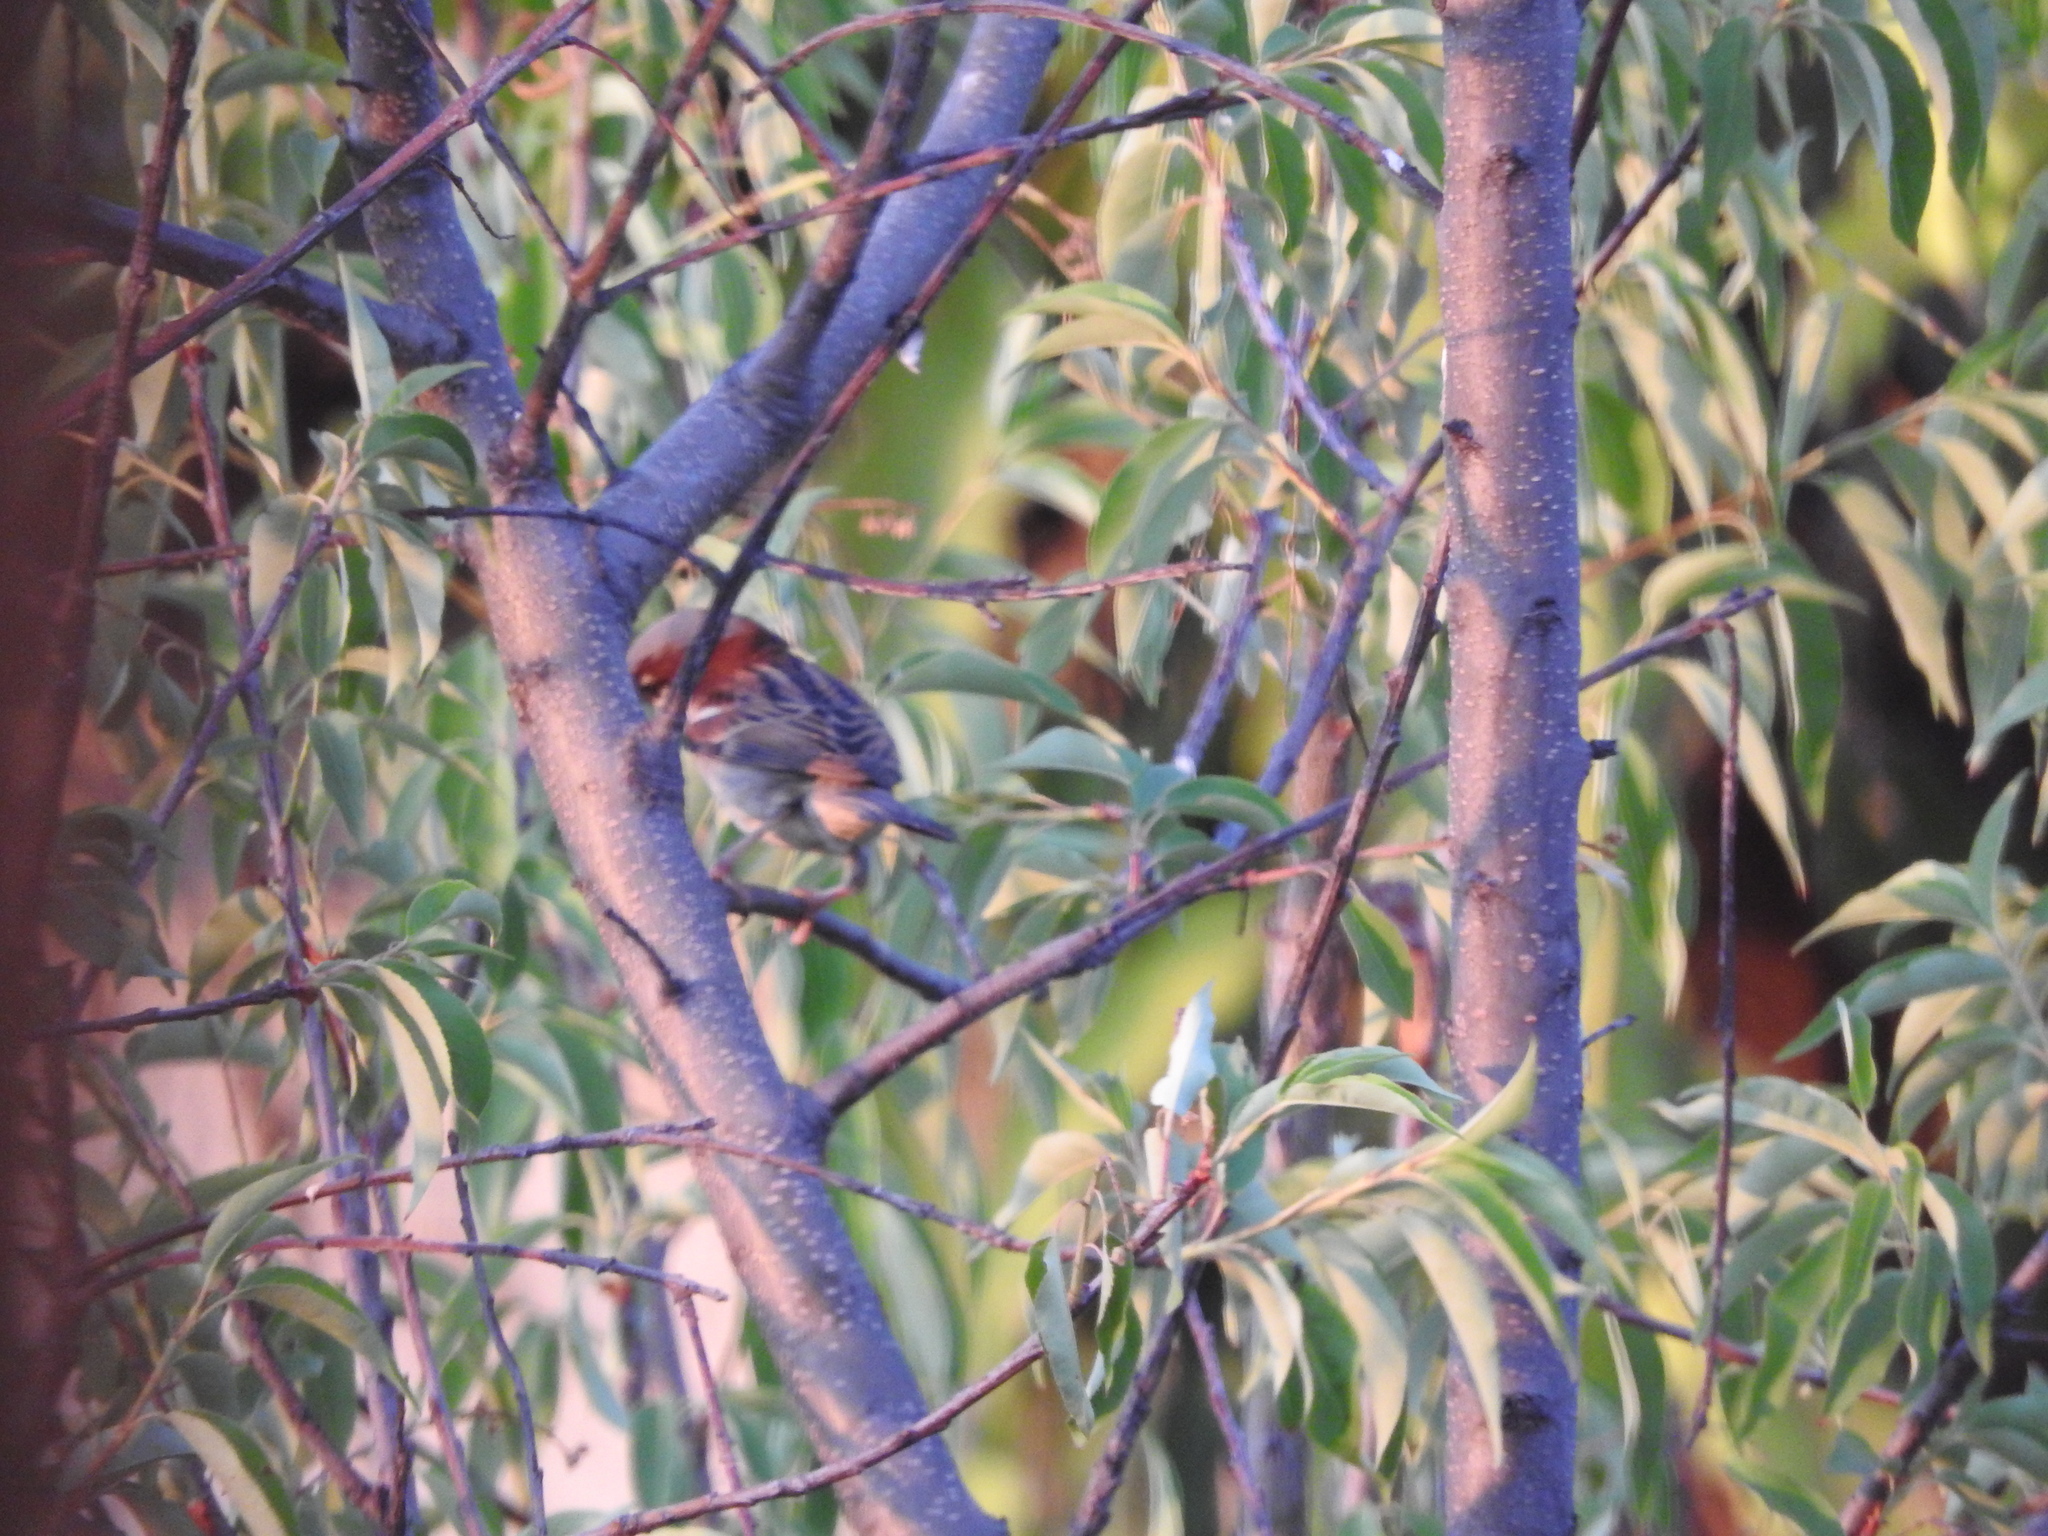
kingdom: Animalia
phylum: Chordata
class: Aves
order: Passeriformes
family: Passeridae
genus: Passer
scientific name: Passer domesticus
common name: House sparrow
